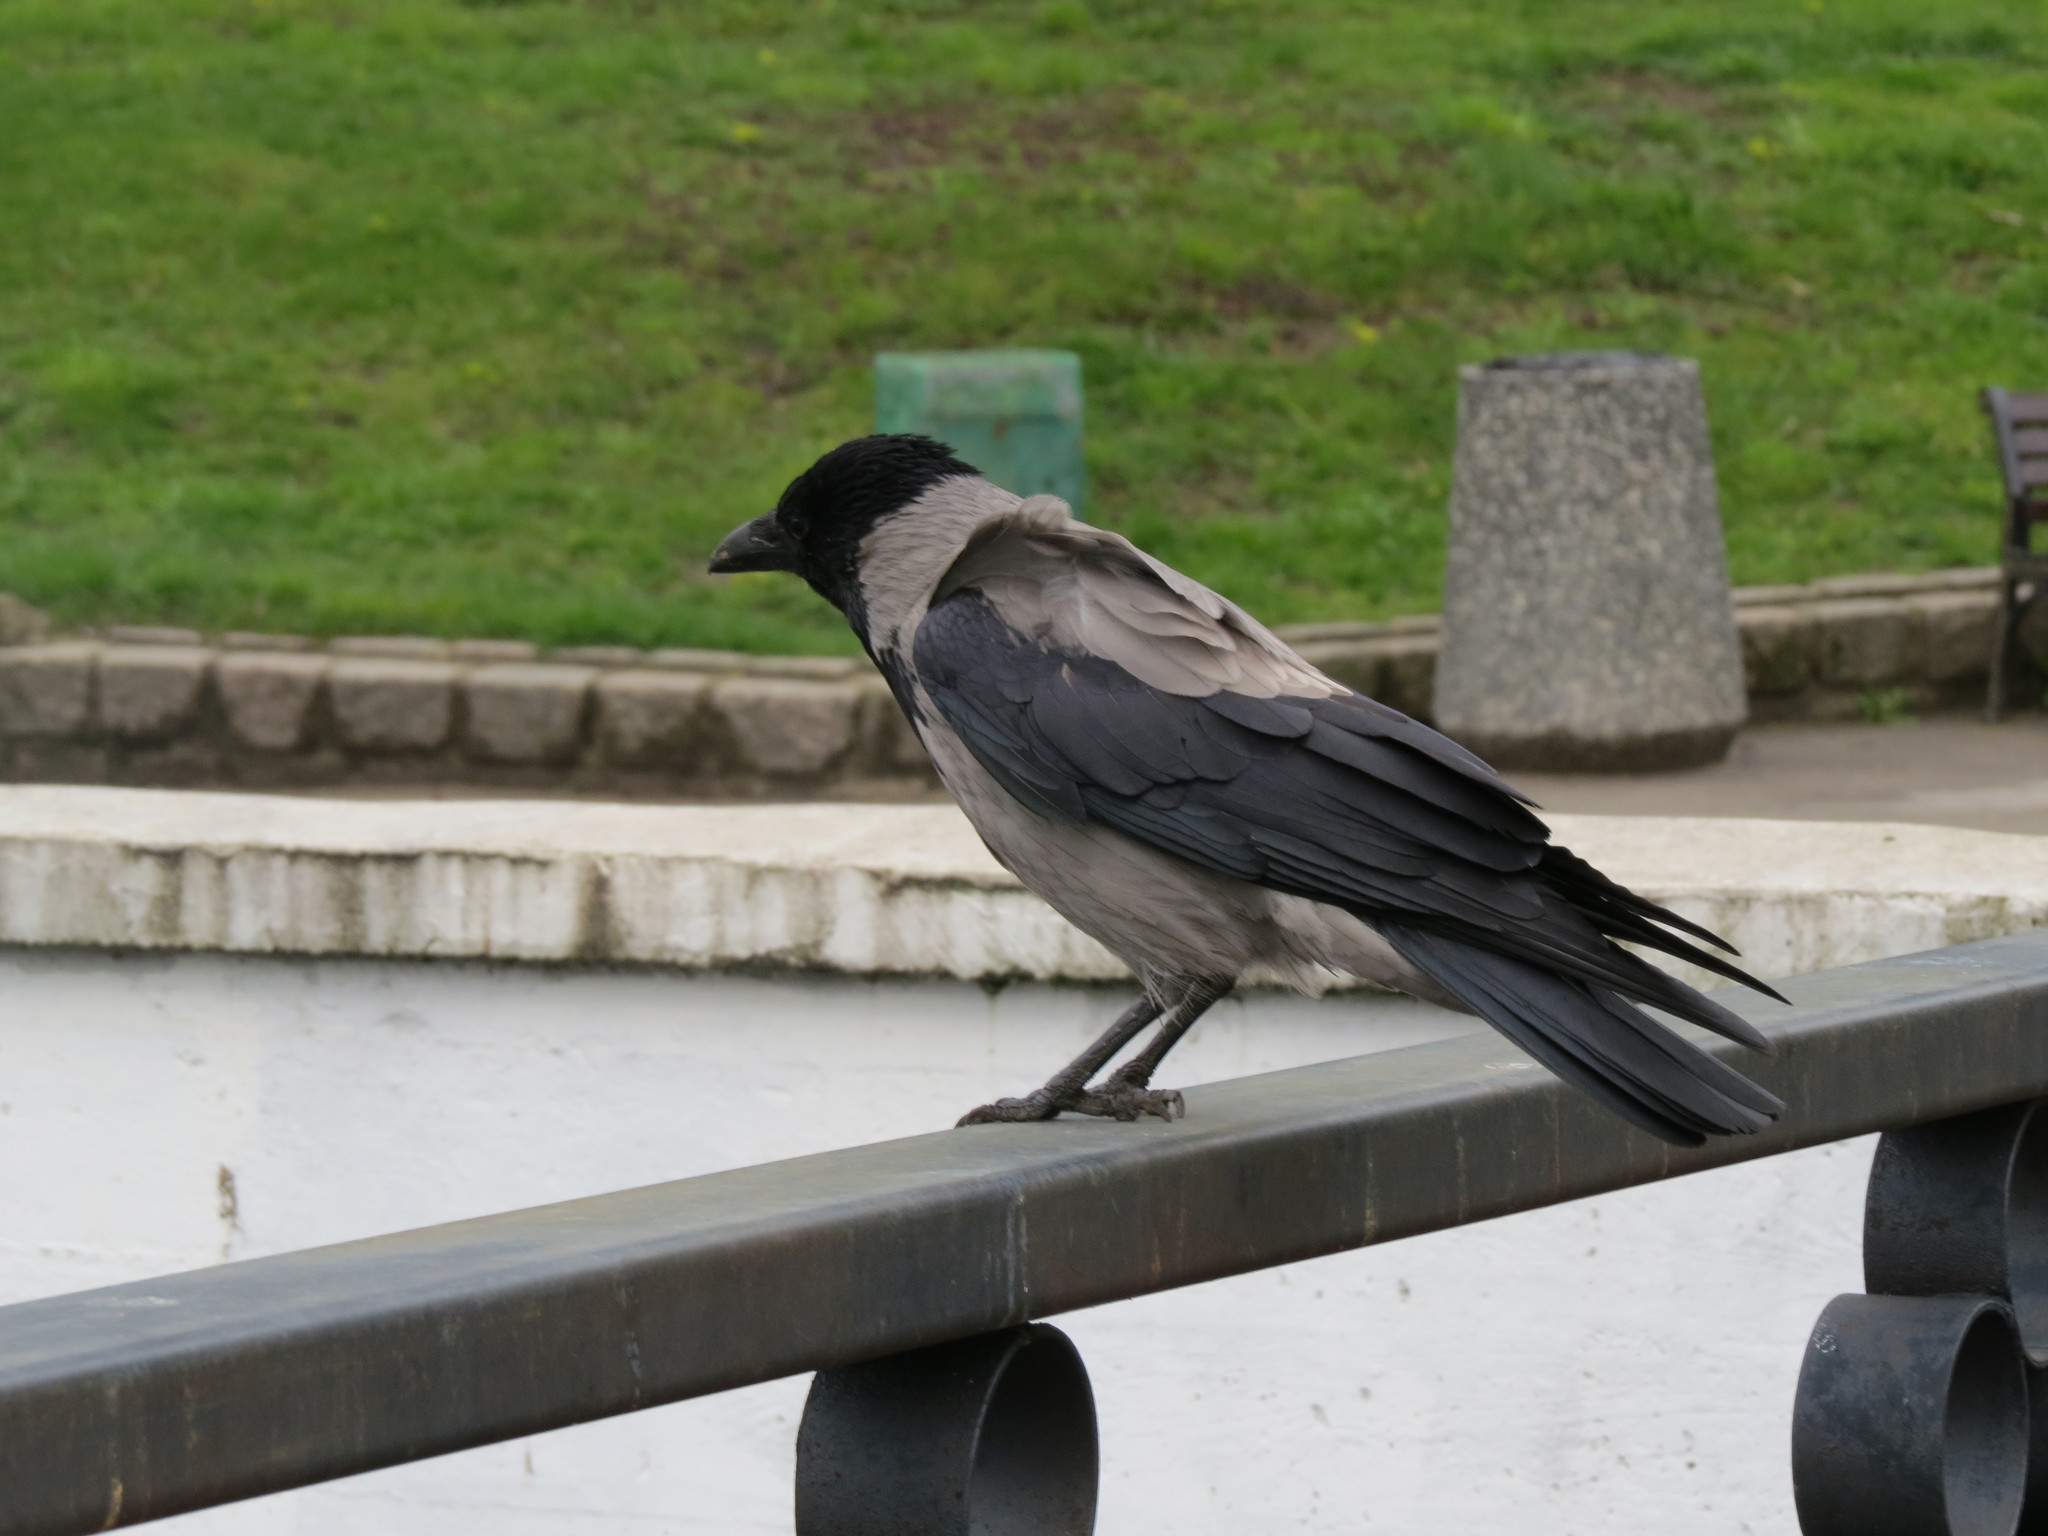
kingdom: Animalia
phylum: Chordata
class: Aves
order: Passeriformes
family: Corvidae
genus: Corvus
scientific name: Corvus cornix
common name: Hooded crow
